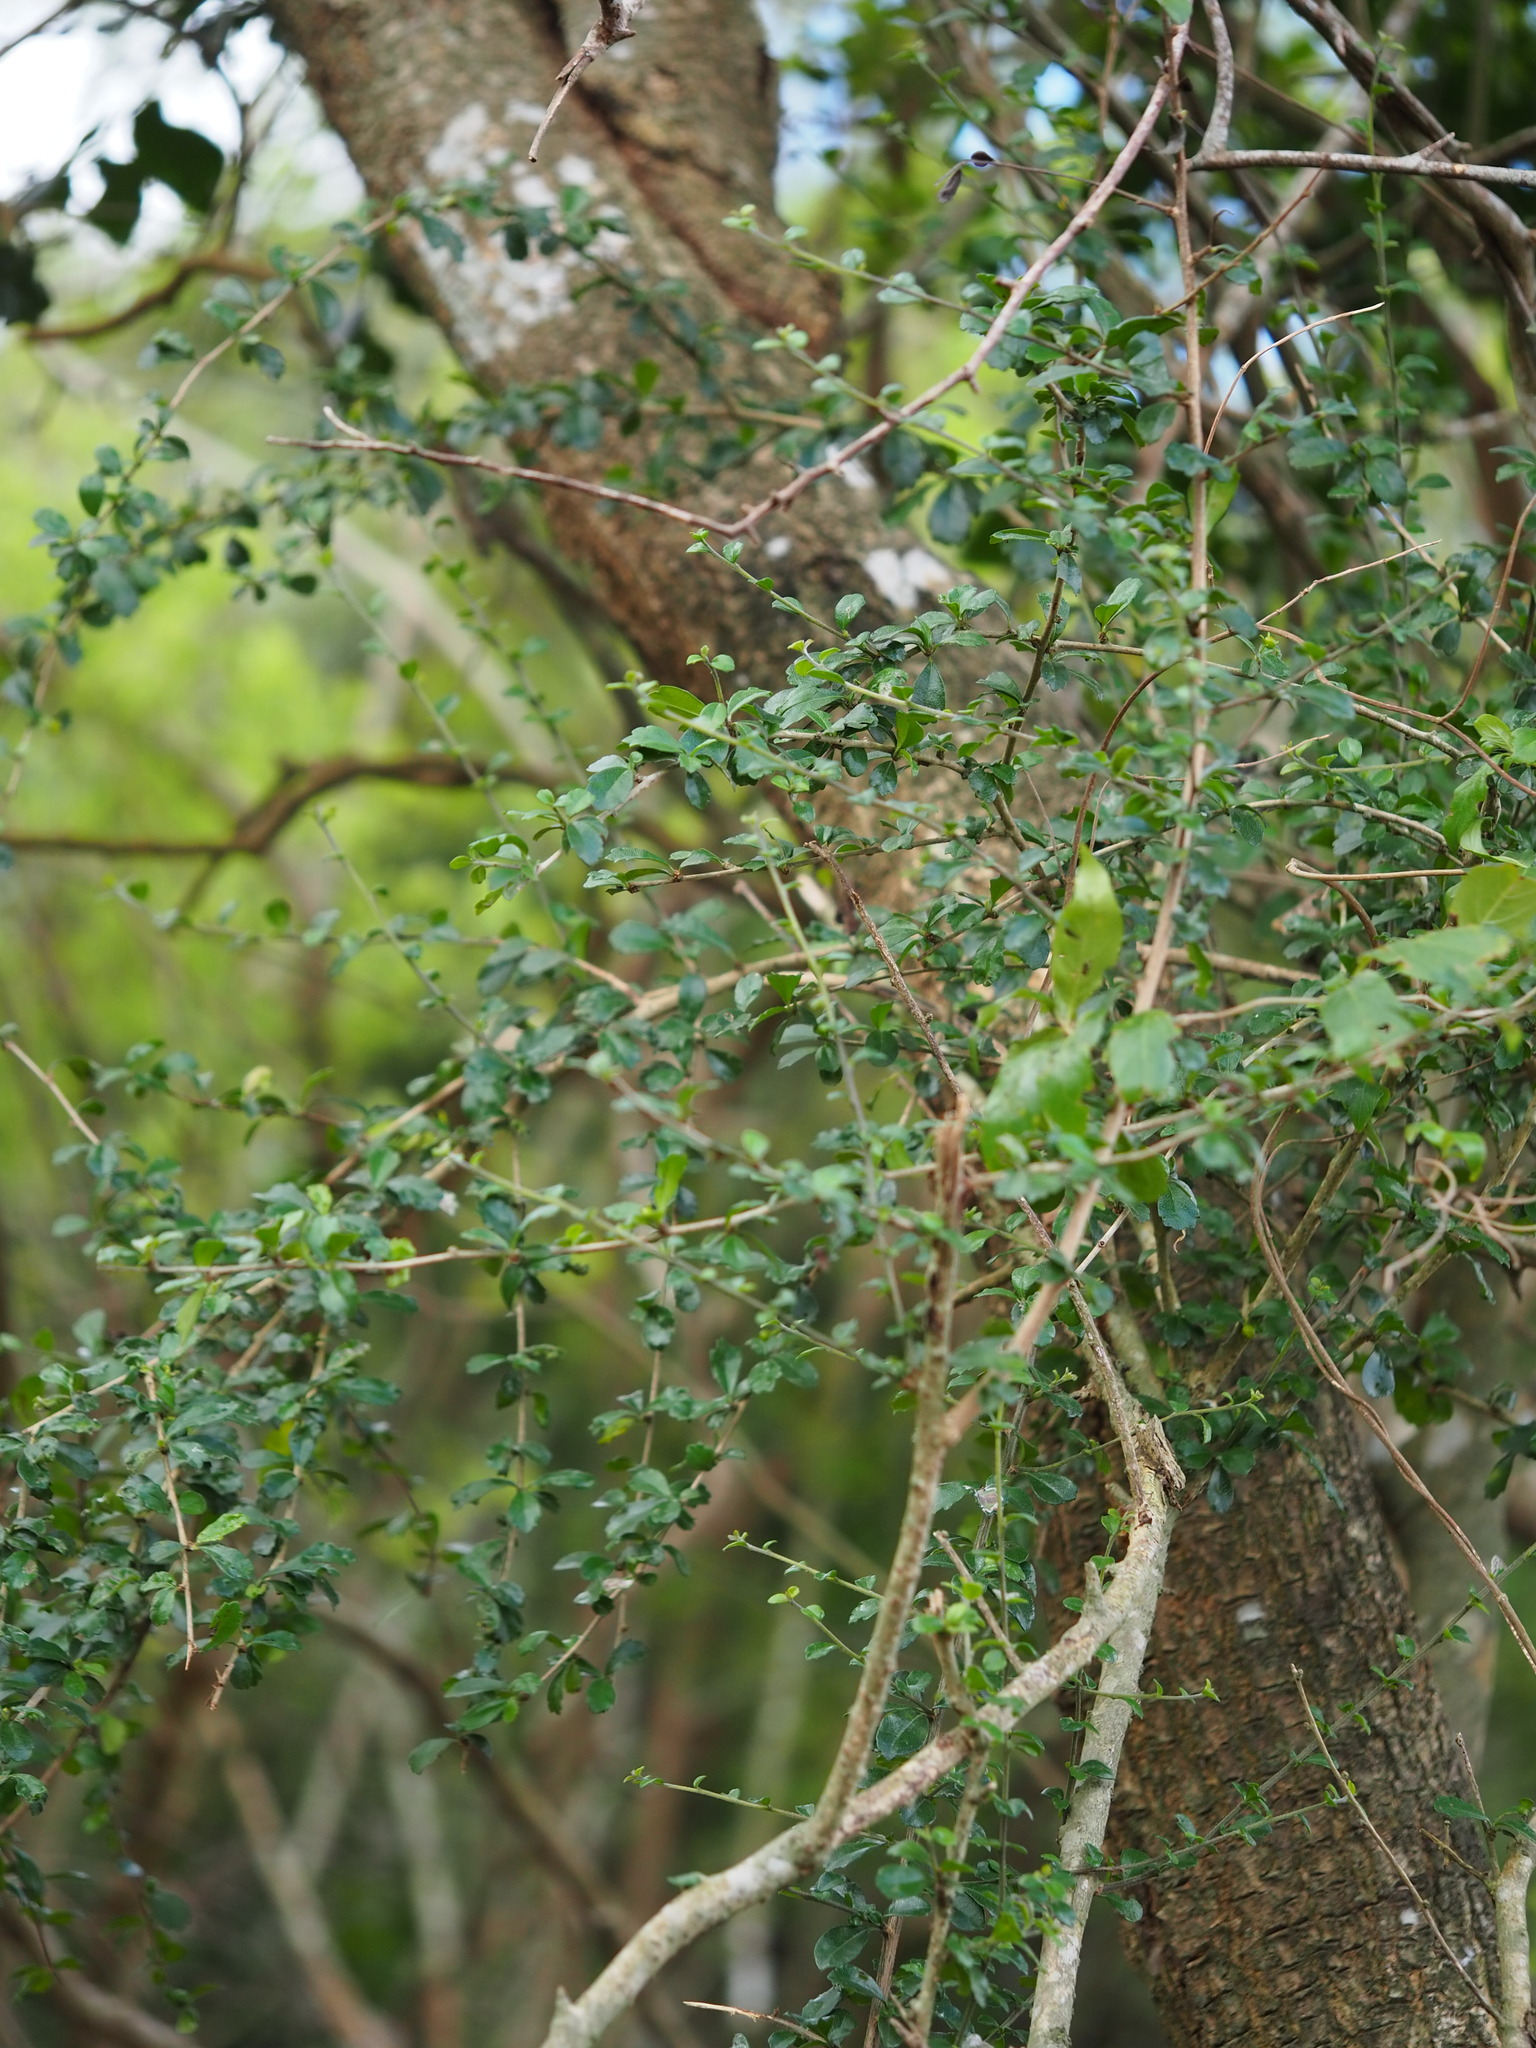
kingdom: Plantae
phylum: Tracheophyta
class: Magnoliopsida
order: Boraginales
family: Ehretiaceae
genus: Ehretia
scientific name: Ehretia microphylla
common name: Fukien-tea
